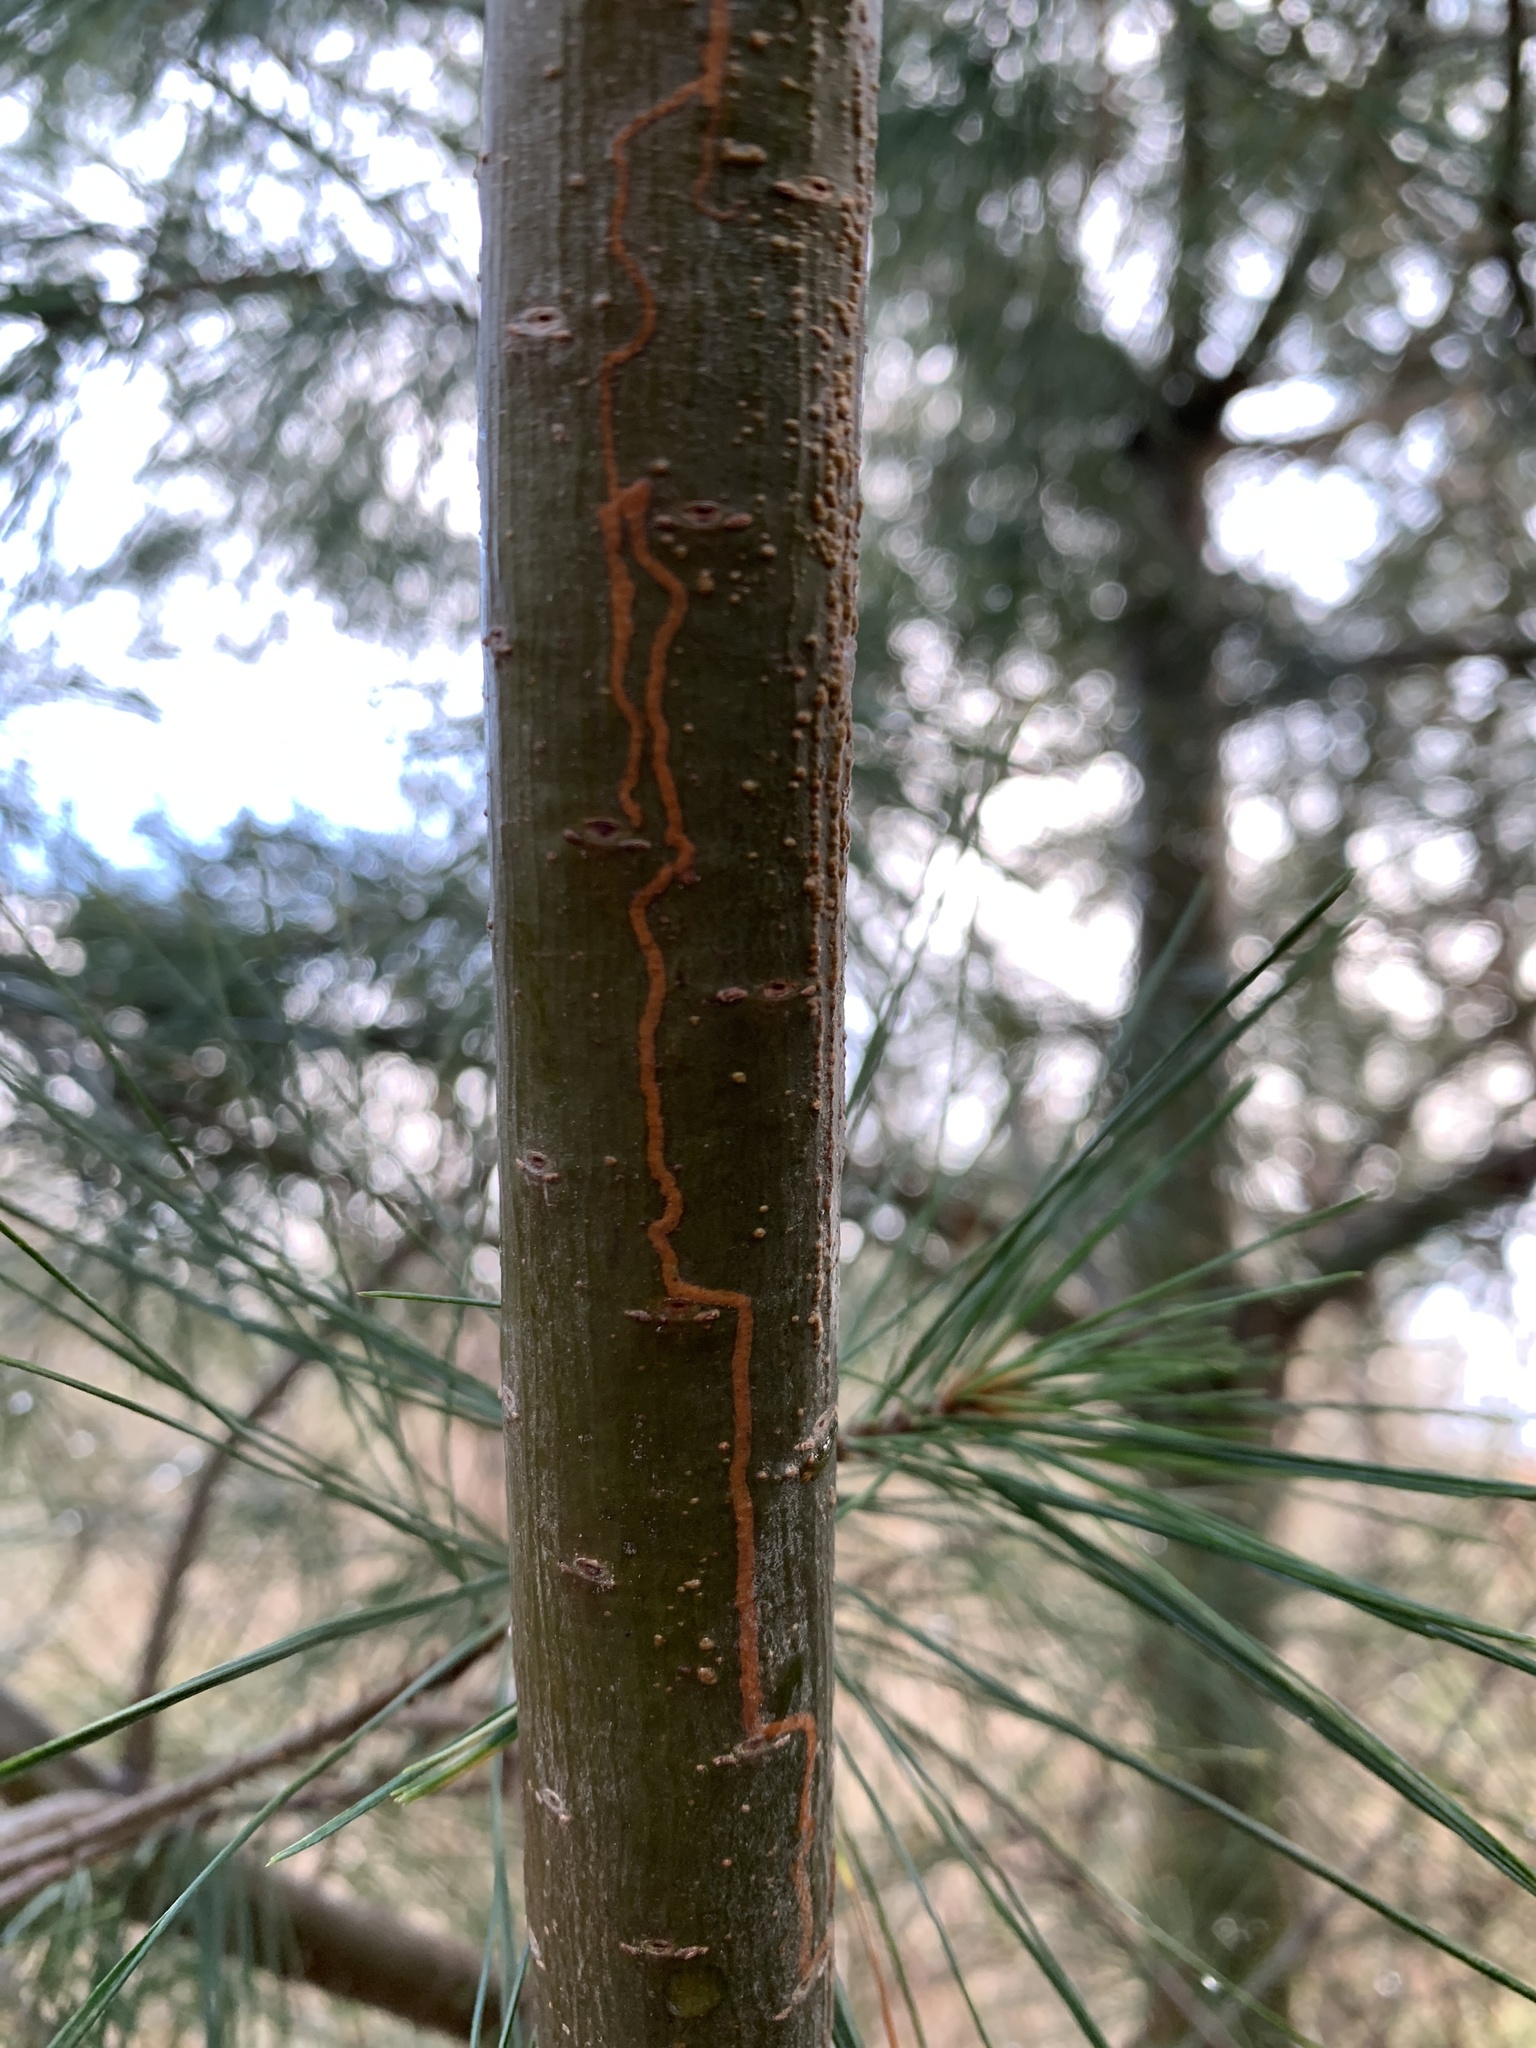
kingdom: Animalia
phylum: Arthropoda
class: Insecta
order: Lepidoptera
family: Gracillariidae
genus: Marmara
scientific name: Marmara fasciella
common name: White pine barkminer moth
